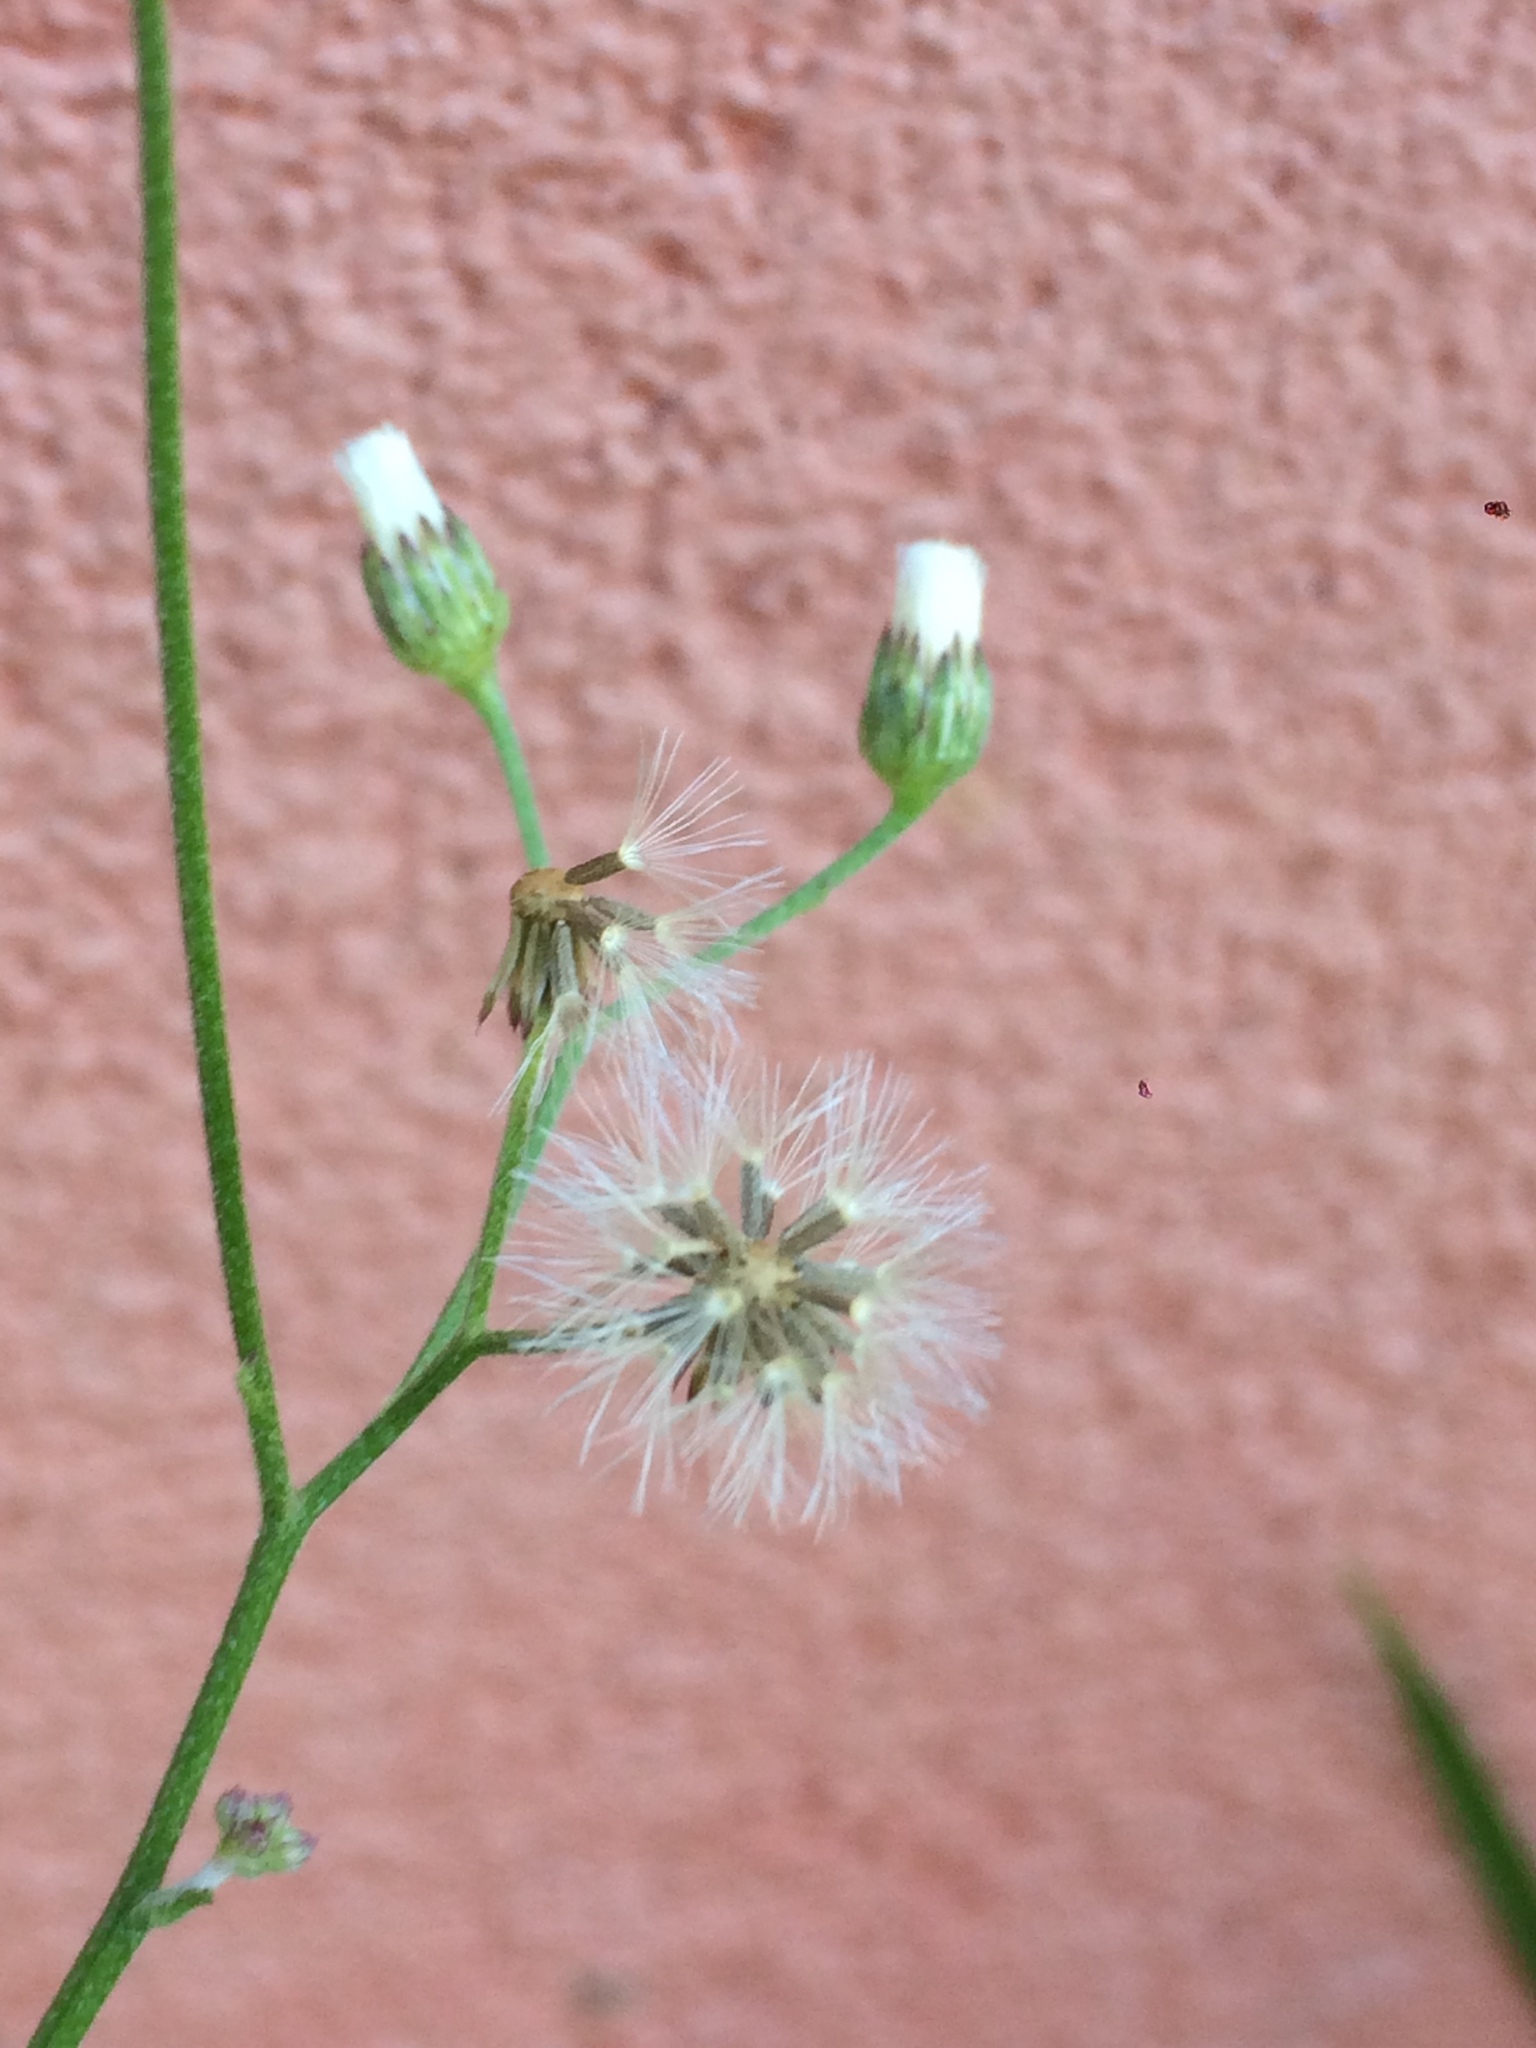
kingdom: Plantae
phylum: Tracheophyta
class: Magnoliopsida
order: Asterales
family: Asteraceae
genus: Cyanthillium
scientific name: Cyanthillium cinereum
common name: Little ironweed
